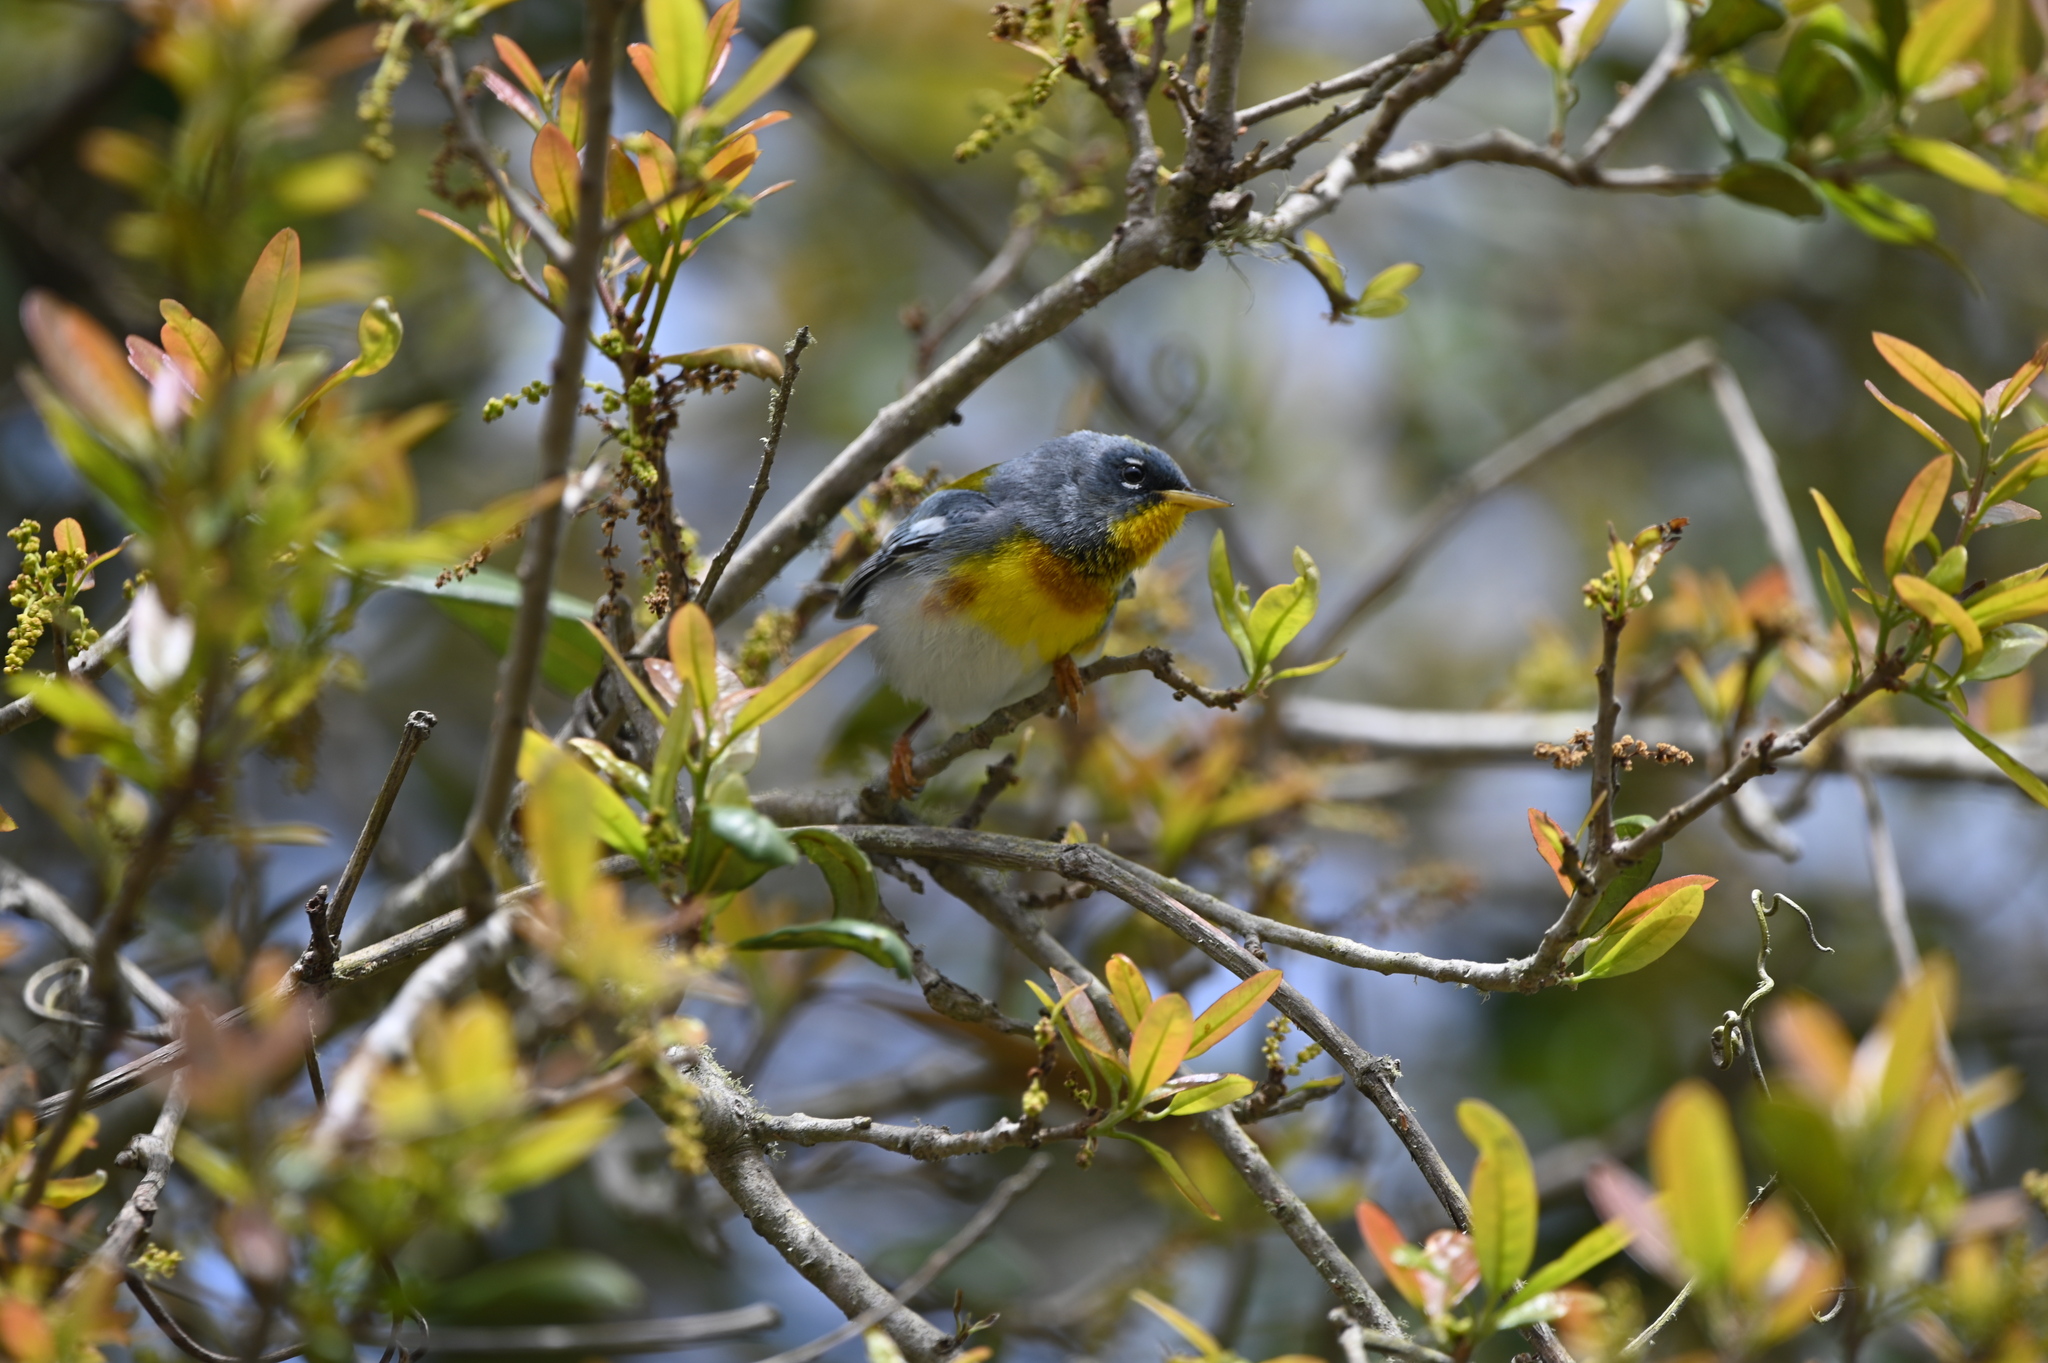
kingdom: Animalia
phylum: Chordata
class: Aves
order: Passeriformes
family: Parulidae
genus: Setophaga
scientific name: Setophaga americana
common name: Northern parula
